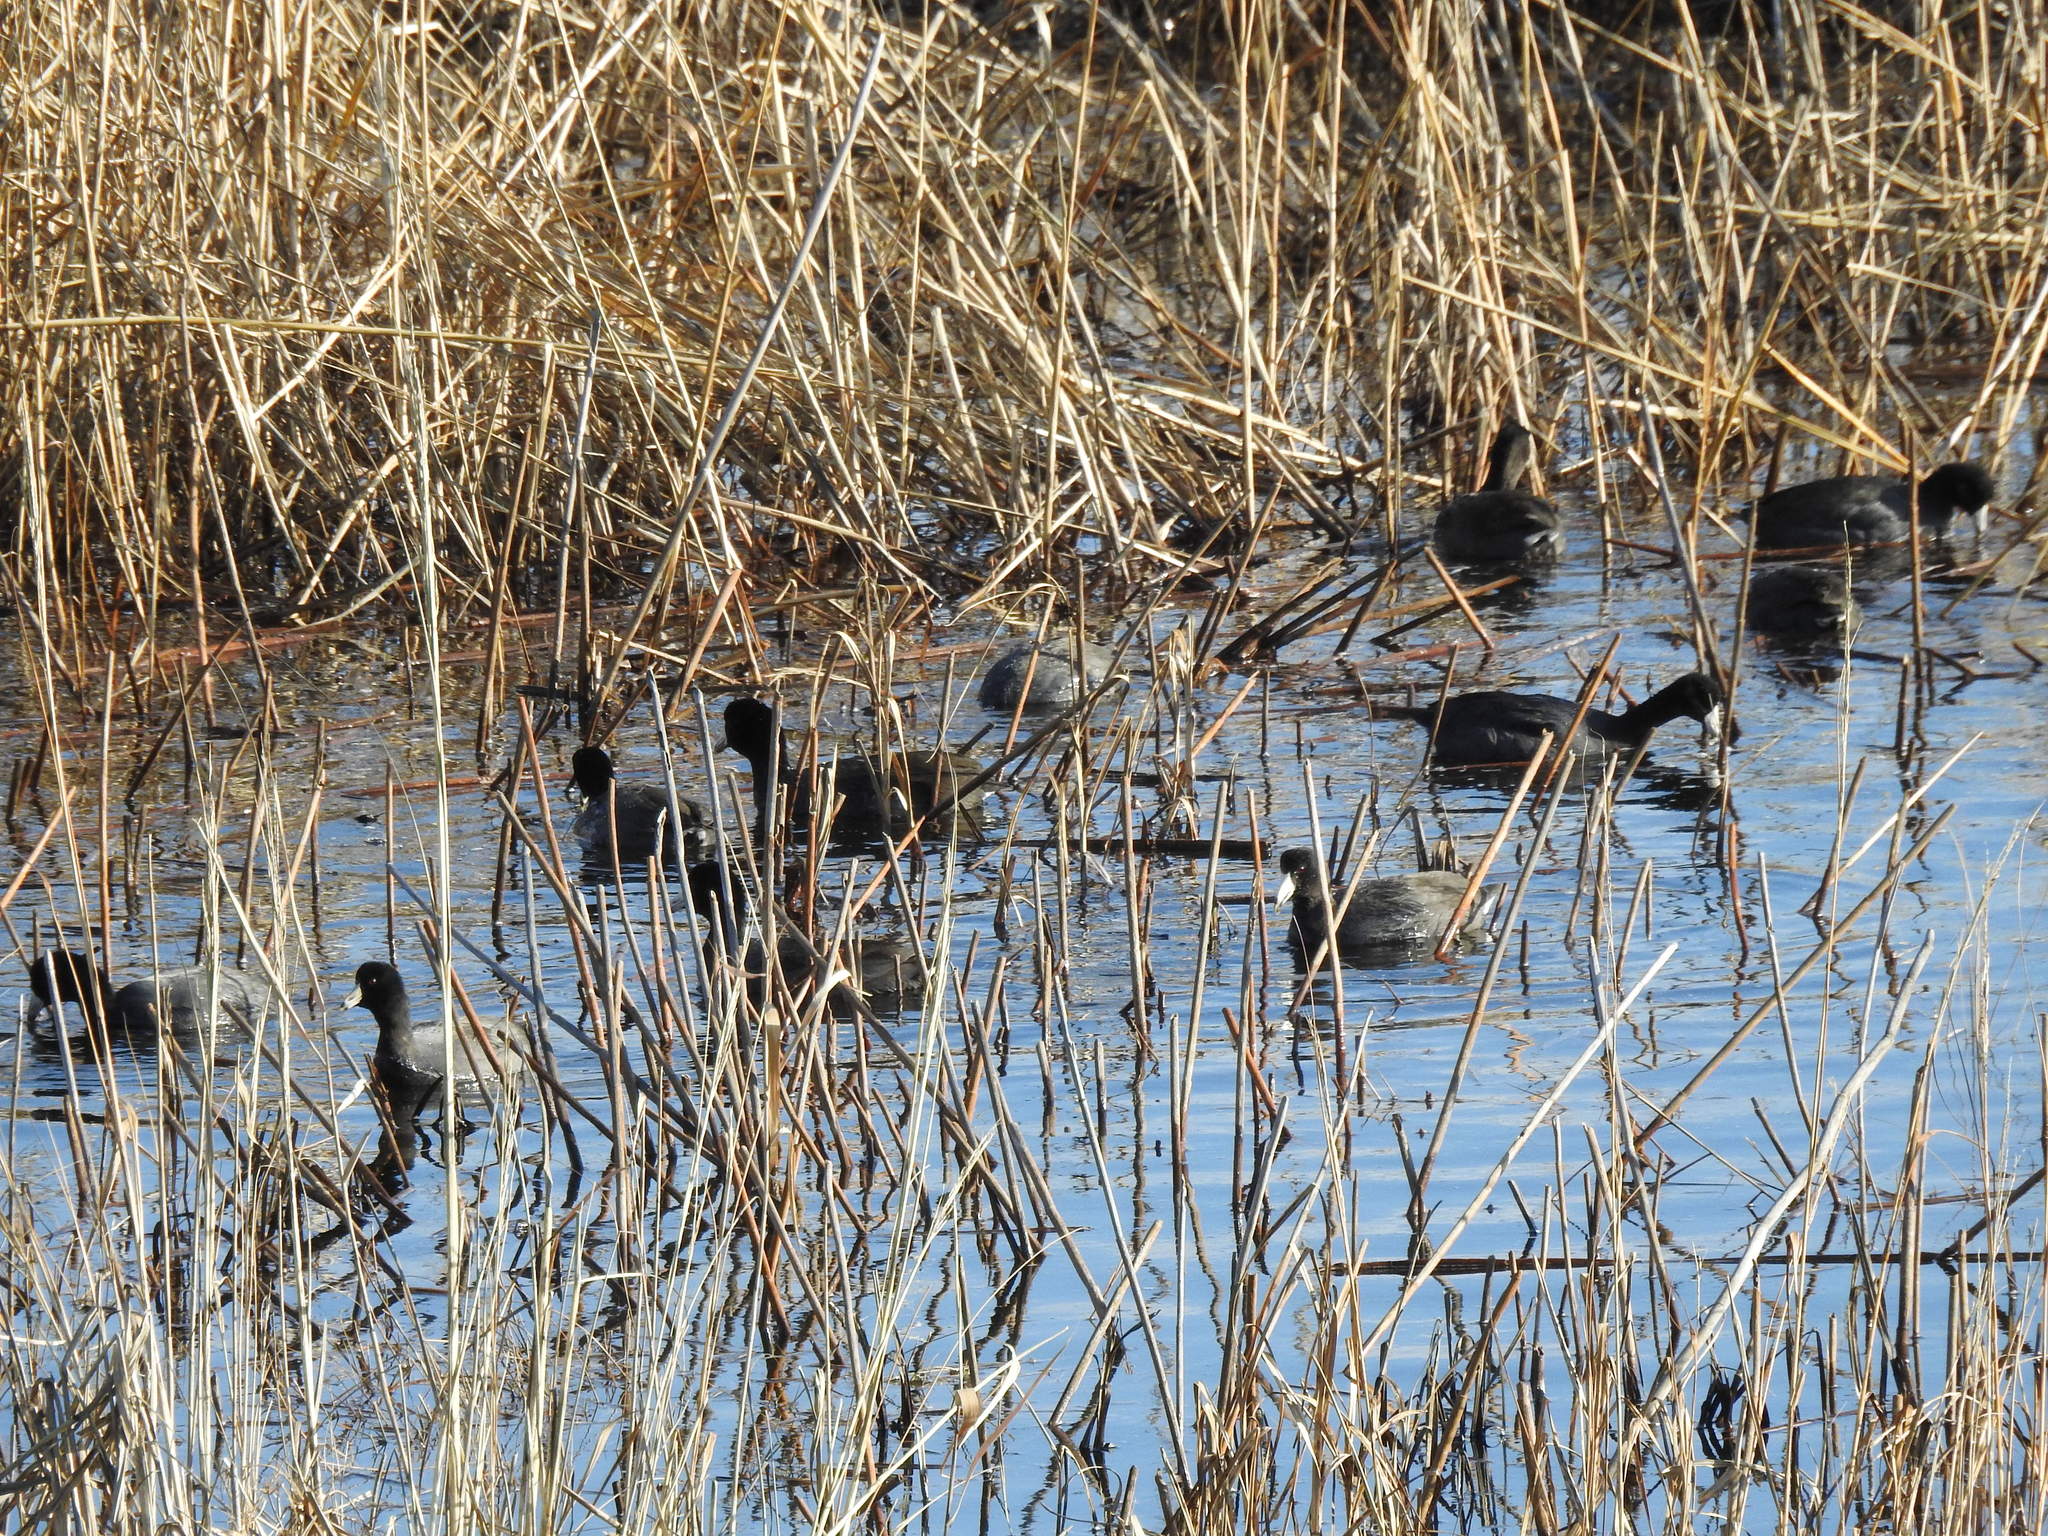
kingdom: Animalia
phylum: Chordata
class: Aves
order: Gruiformes
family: Rallidae
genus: Fulica
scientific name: Fulica americana
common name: American coot
